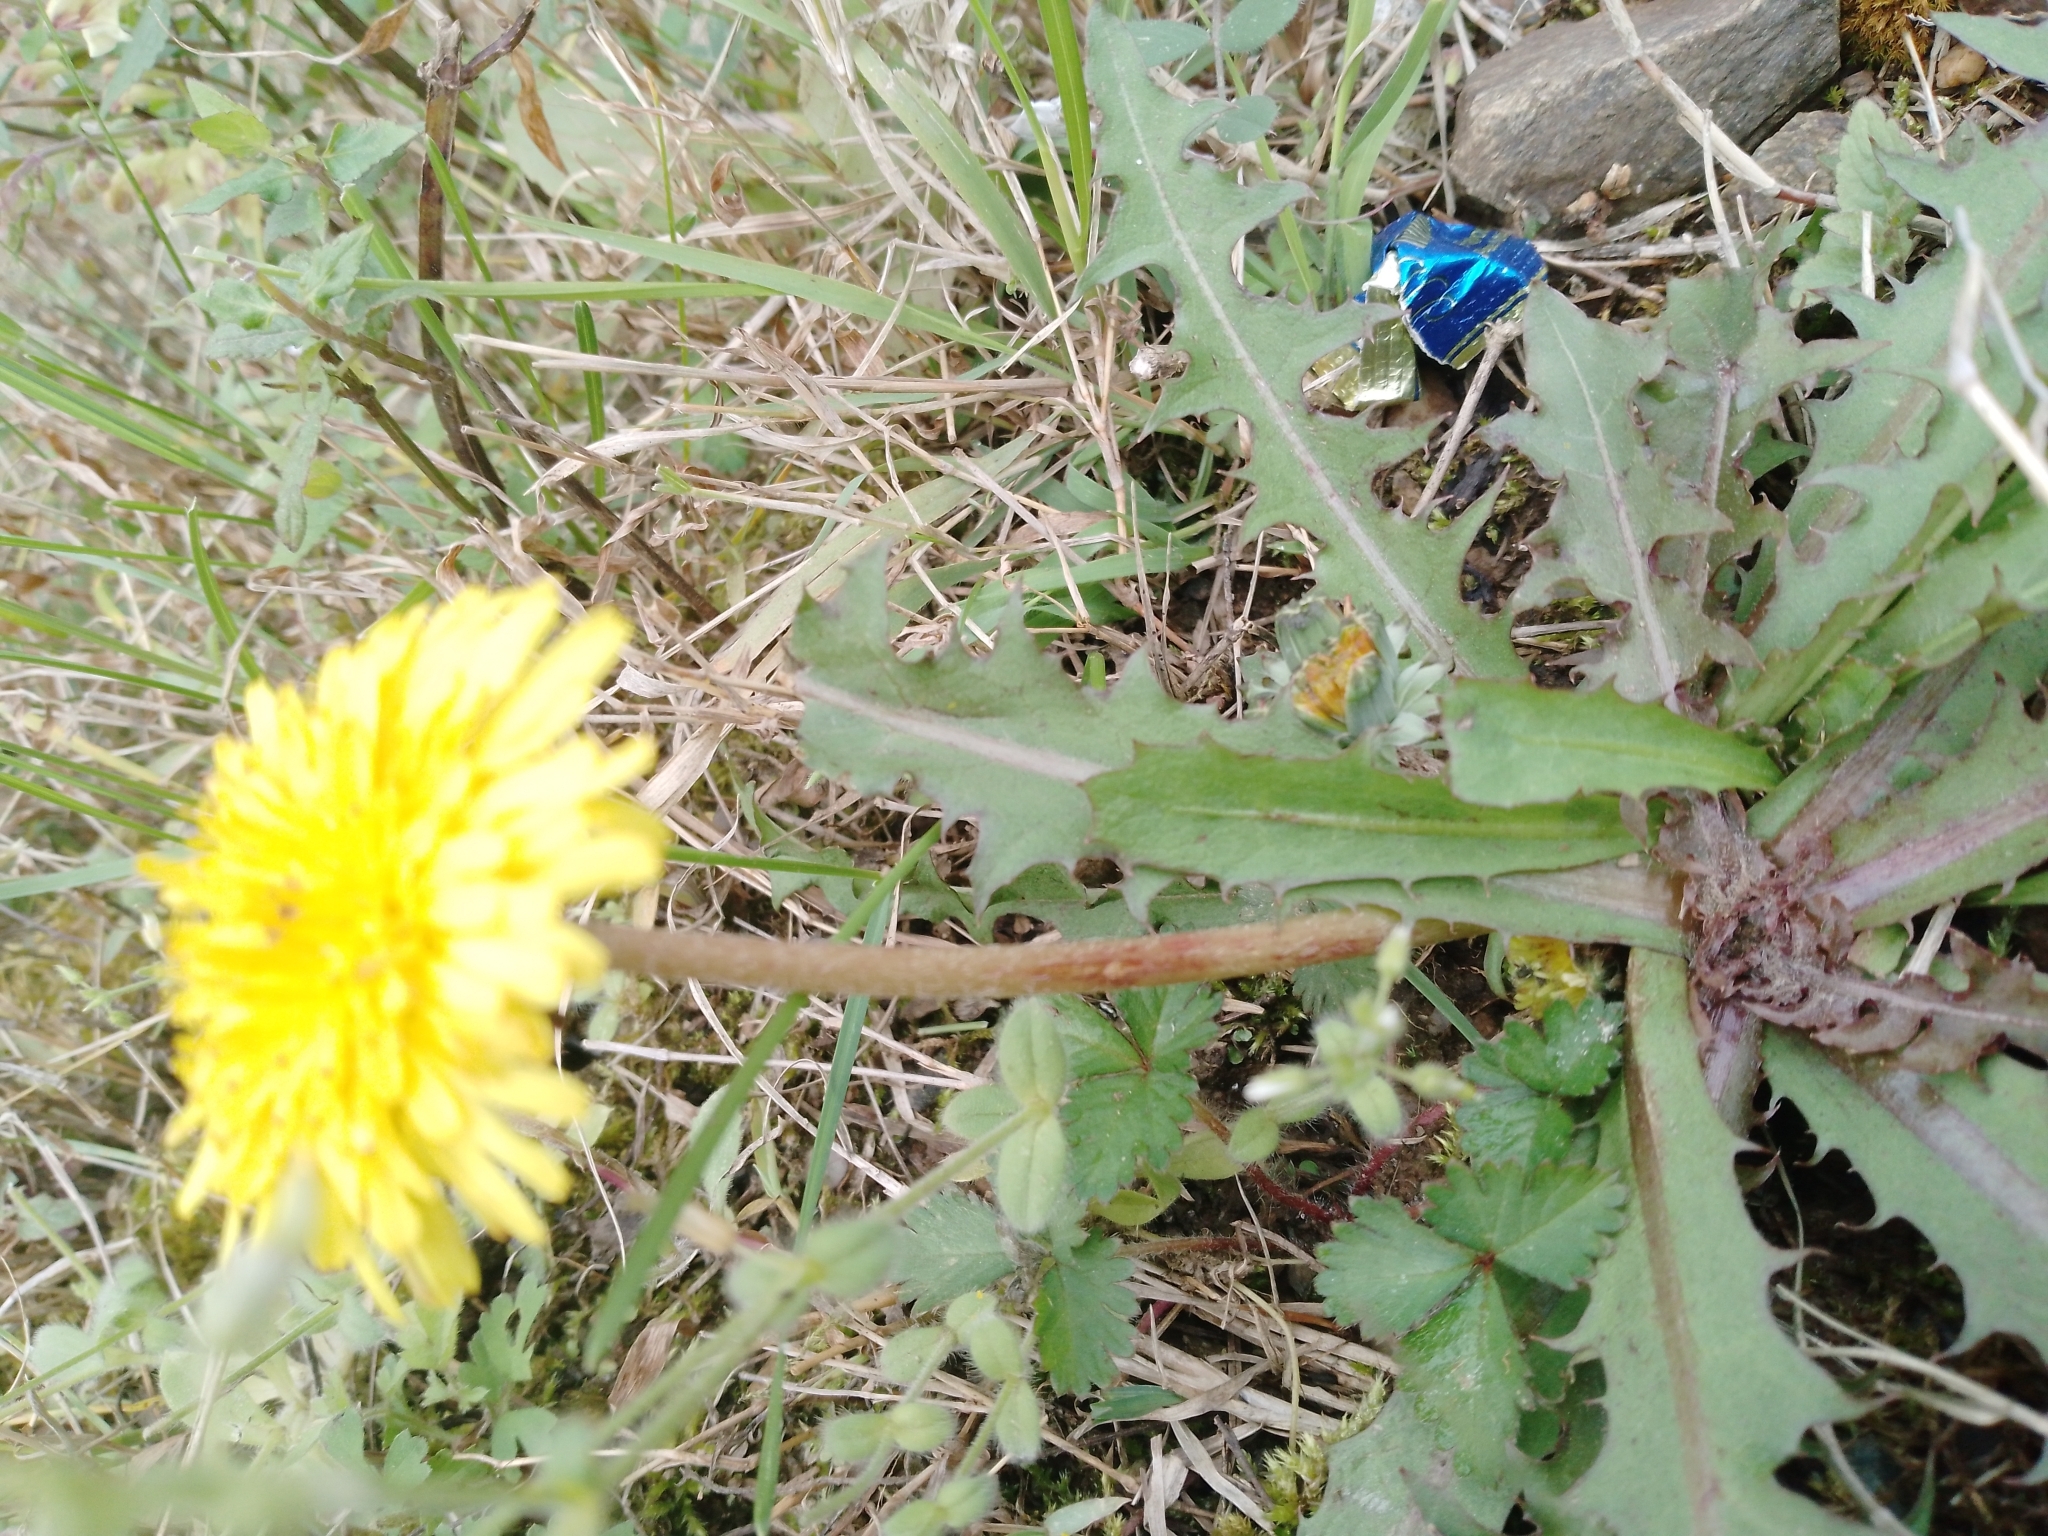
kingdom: Plantae
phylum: Tracheophyta
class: Magnoliopsida
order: Asterales
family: Asteraceae
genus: Taraxacum
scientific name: Taraxacum officinale
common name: Common dandelion
